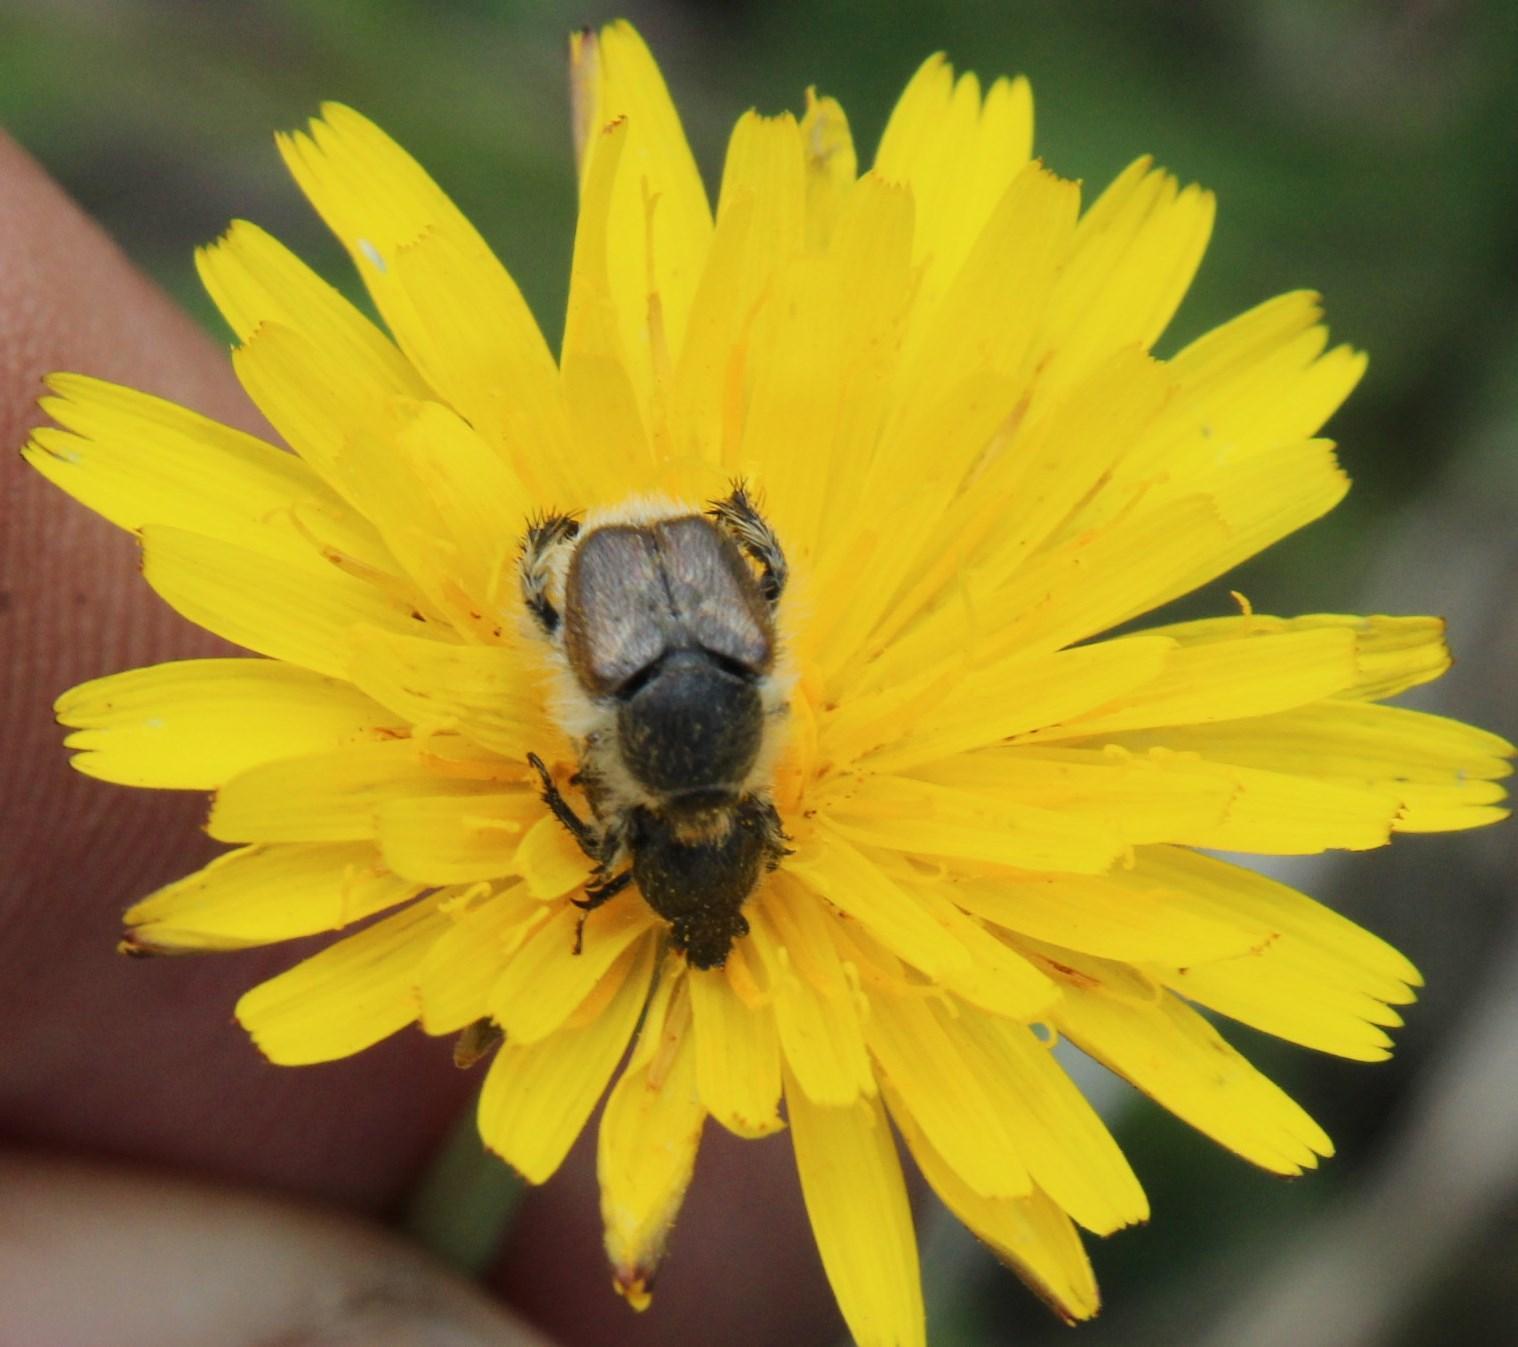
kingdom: Plantae
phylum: Tracheophyta
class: Magnoliopsida
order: Asterales
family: Asteraceae
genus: Hypochaeris
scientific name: Hypochaeris radicata
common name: Flatweed
